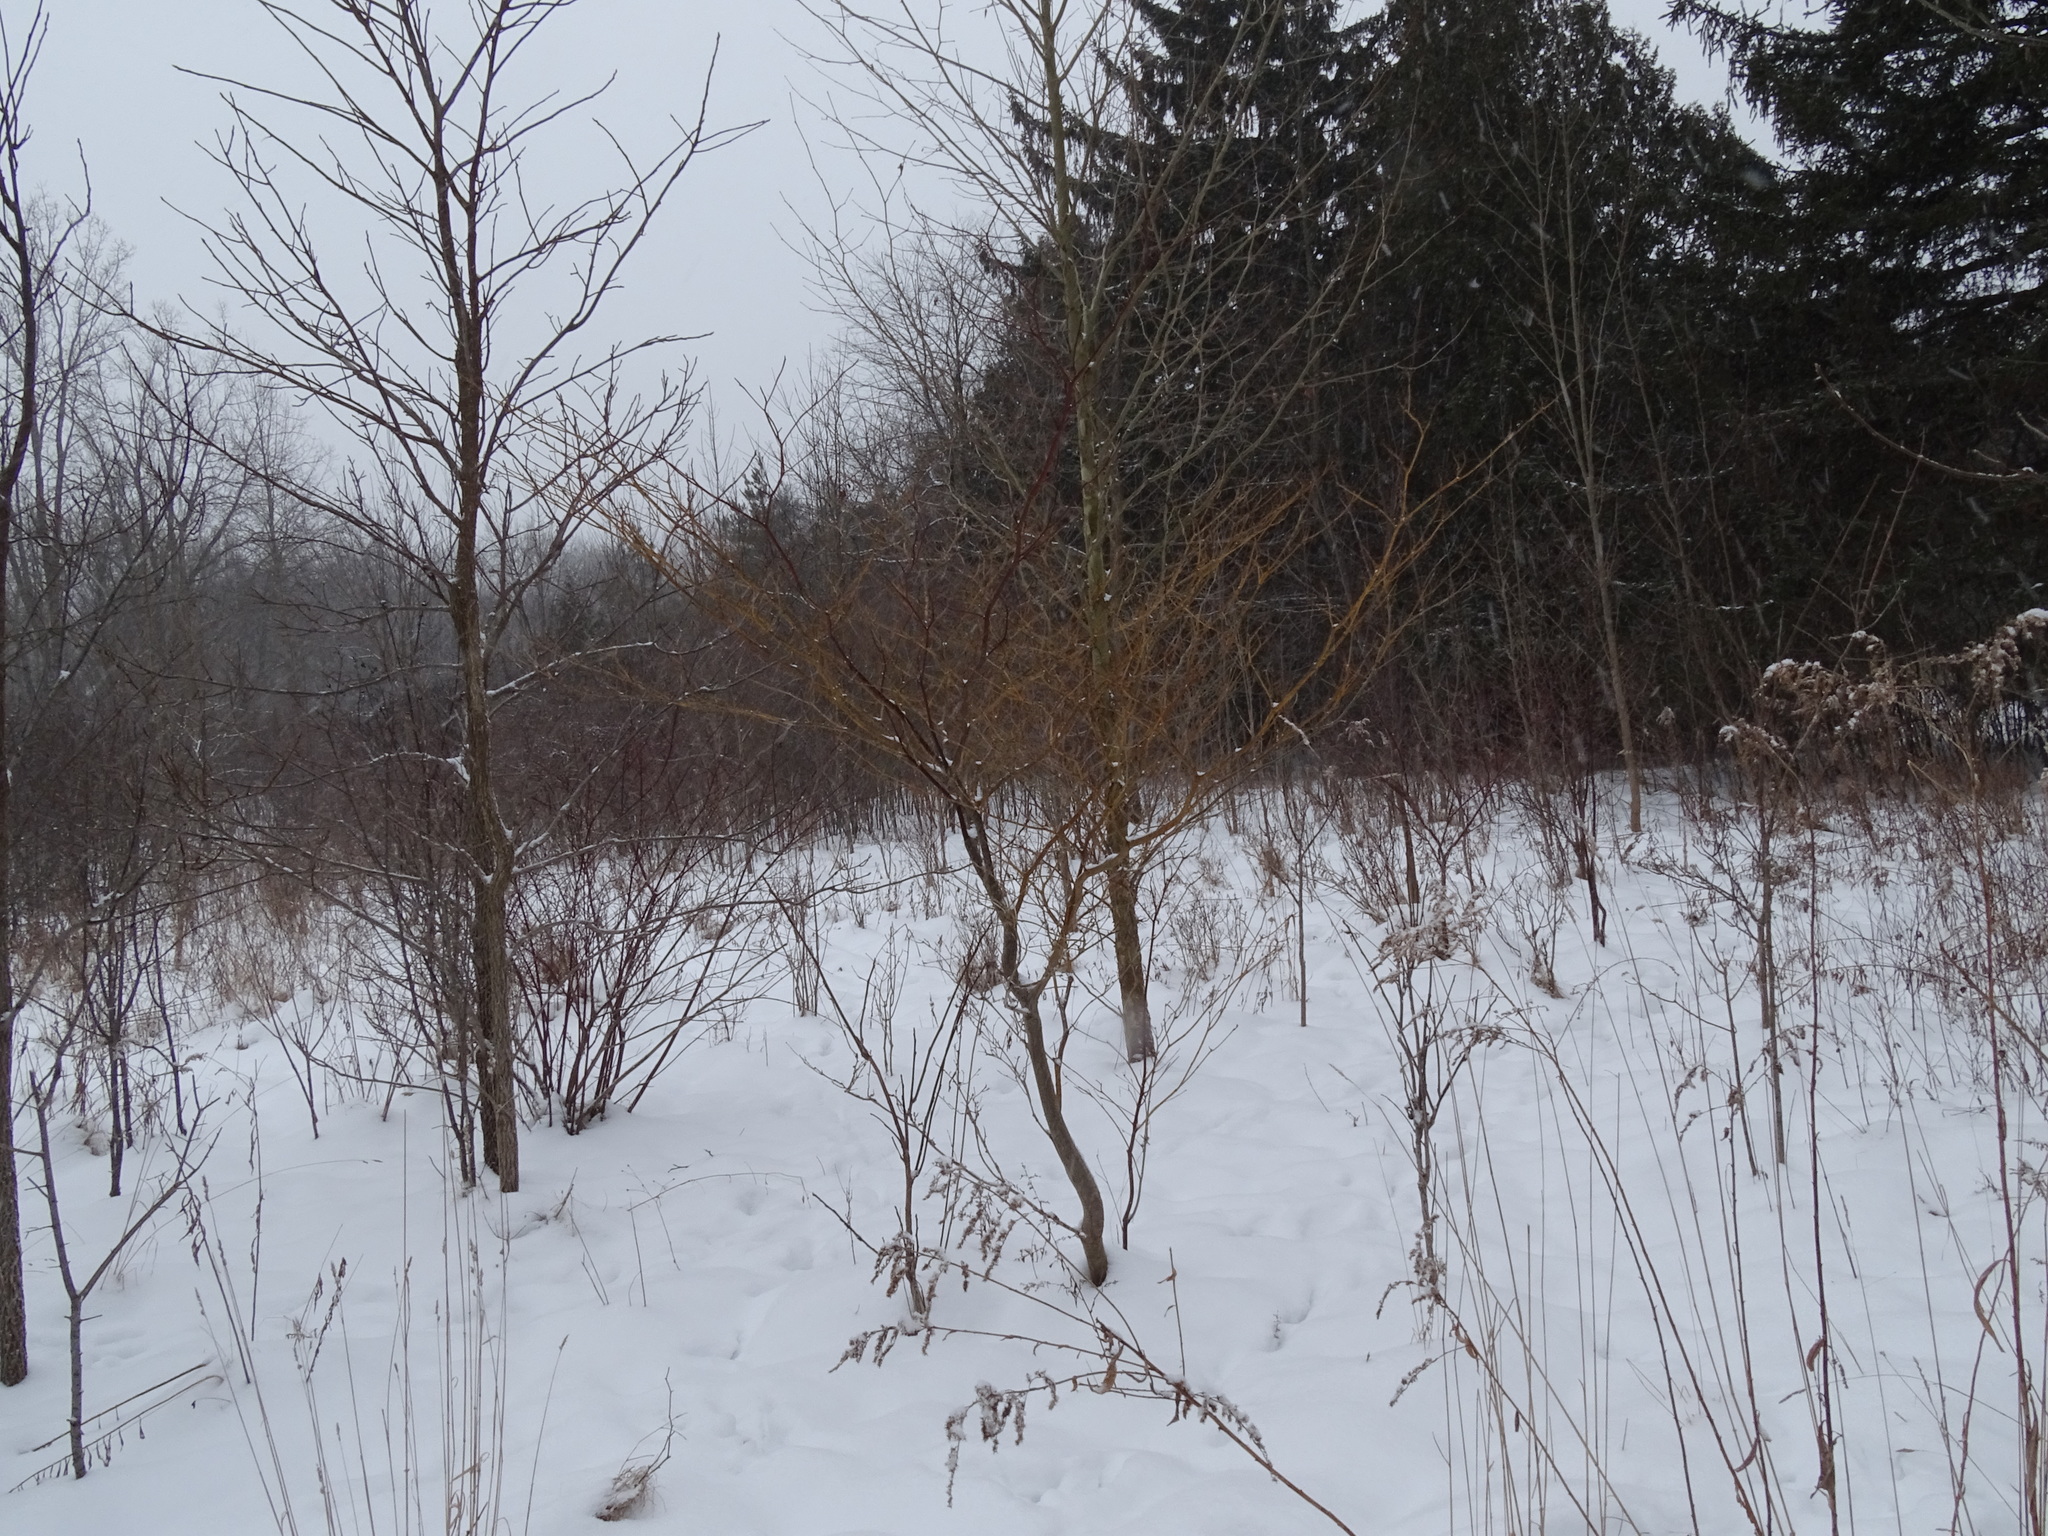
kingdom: Plantae
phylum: Tracheophyta
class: Magnoliopsida
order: Cornales
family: Cornaceae
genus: Cornus
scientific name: Cornus alternifolia
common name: Pagoda dogwood
